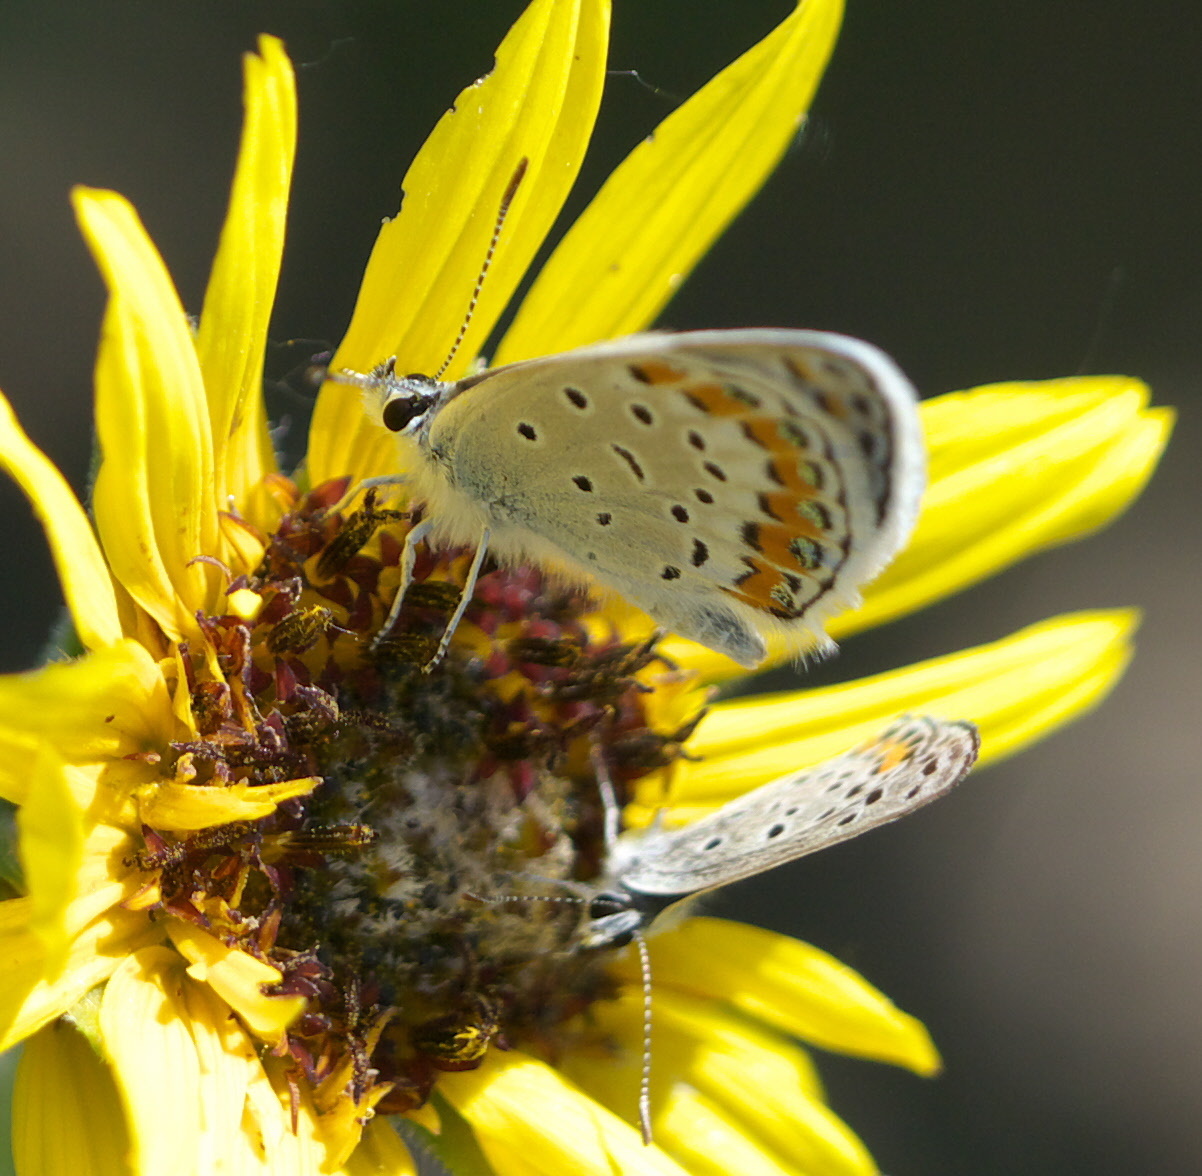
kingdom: Animalia
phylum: Arthropoda
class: Insecta
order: Lepidoptera
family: Lycaenidae
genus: Lycaeides
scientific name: Lycaeides melissa
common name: Melissa blue
